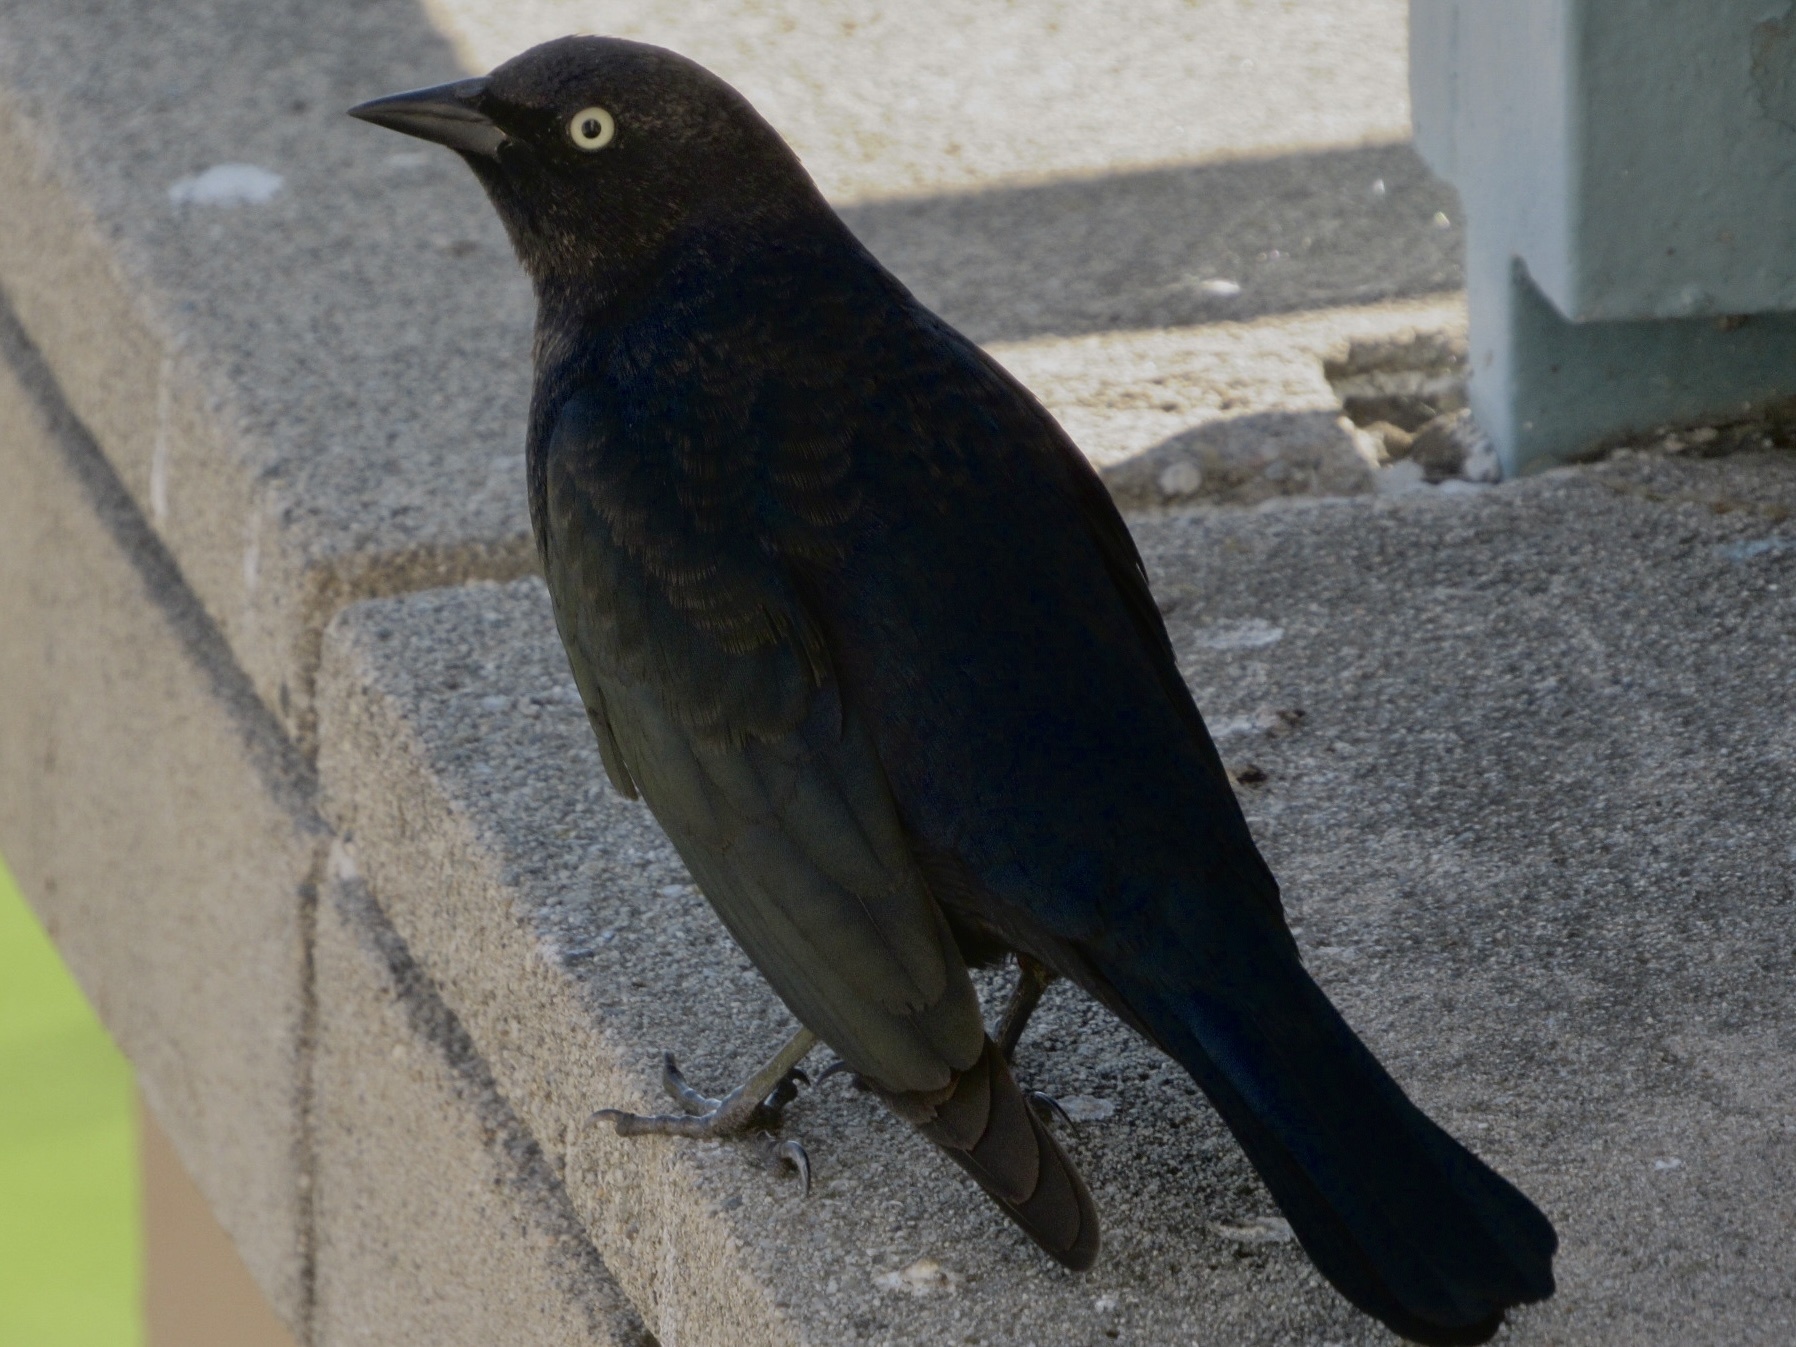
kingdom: Animalia
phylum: Chordata
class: Aves
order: Passeriformes
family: Icteridae
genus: Euphagus
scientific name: Euphagus cyanocephalus
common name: Brewer's blackbird
